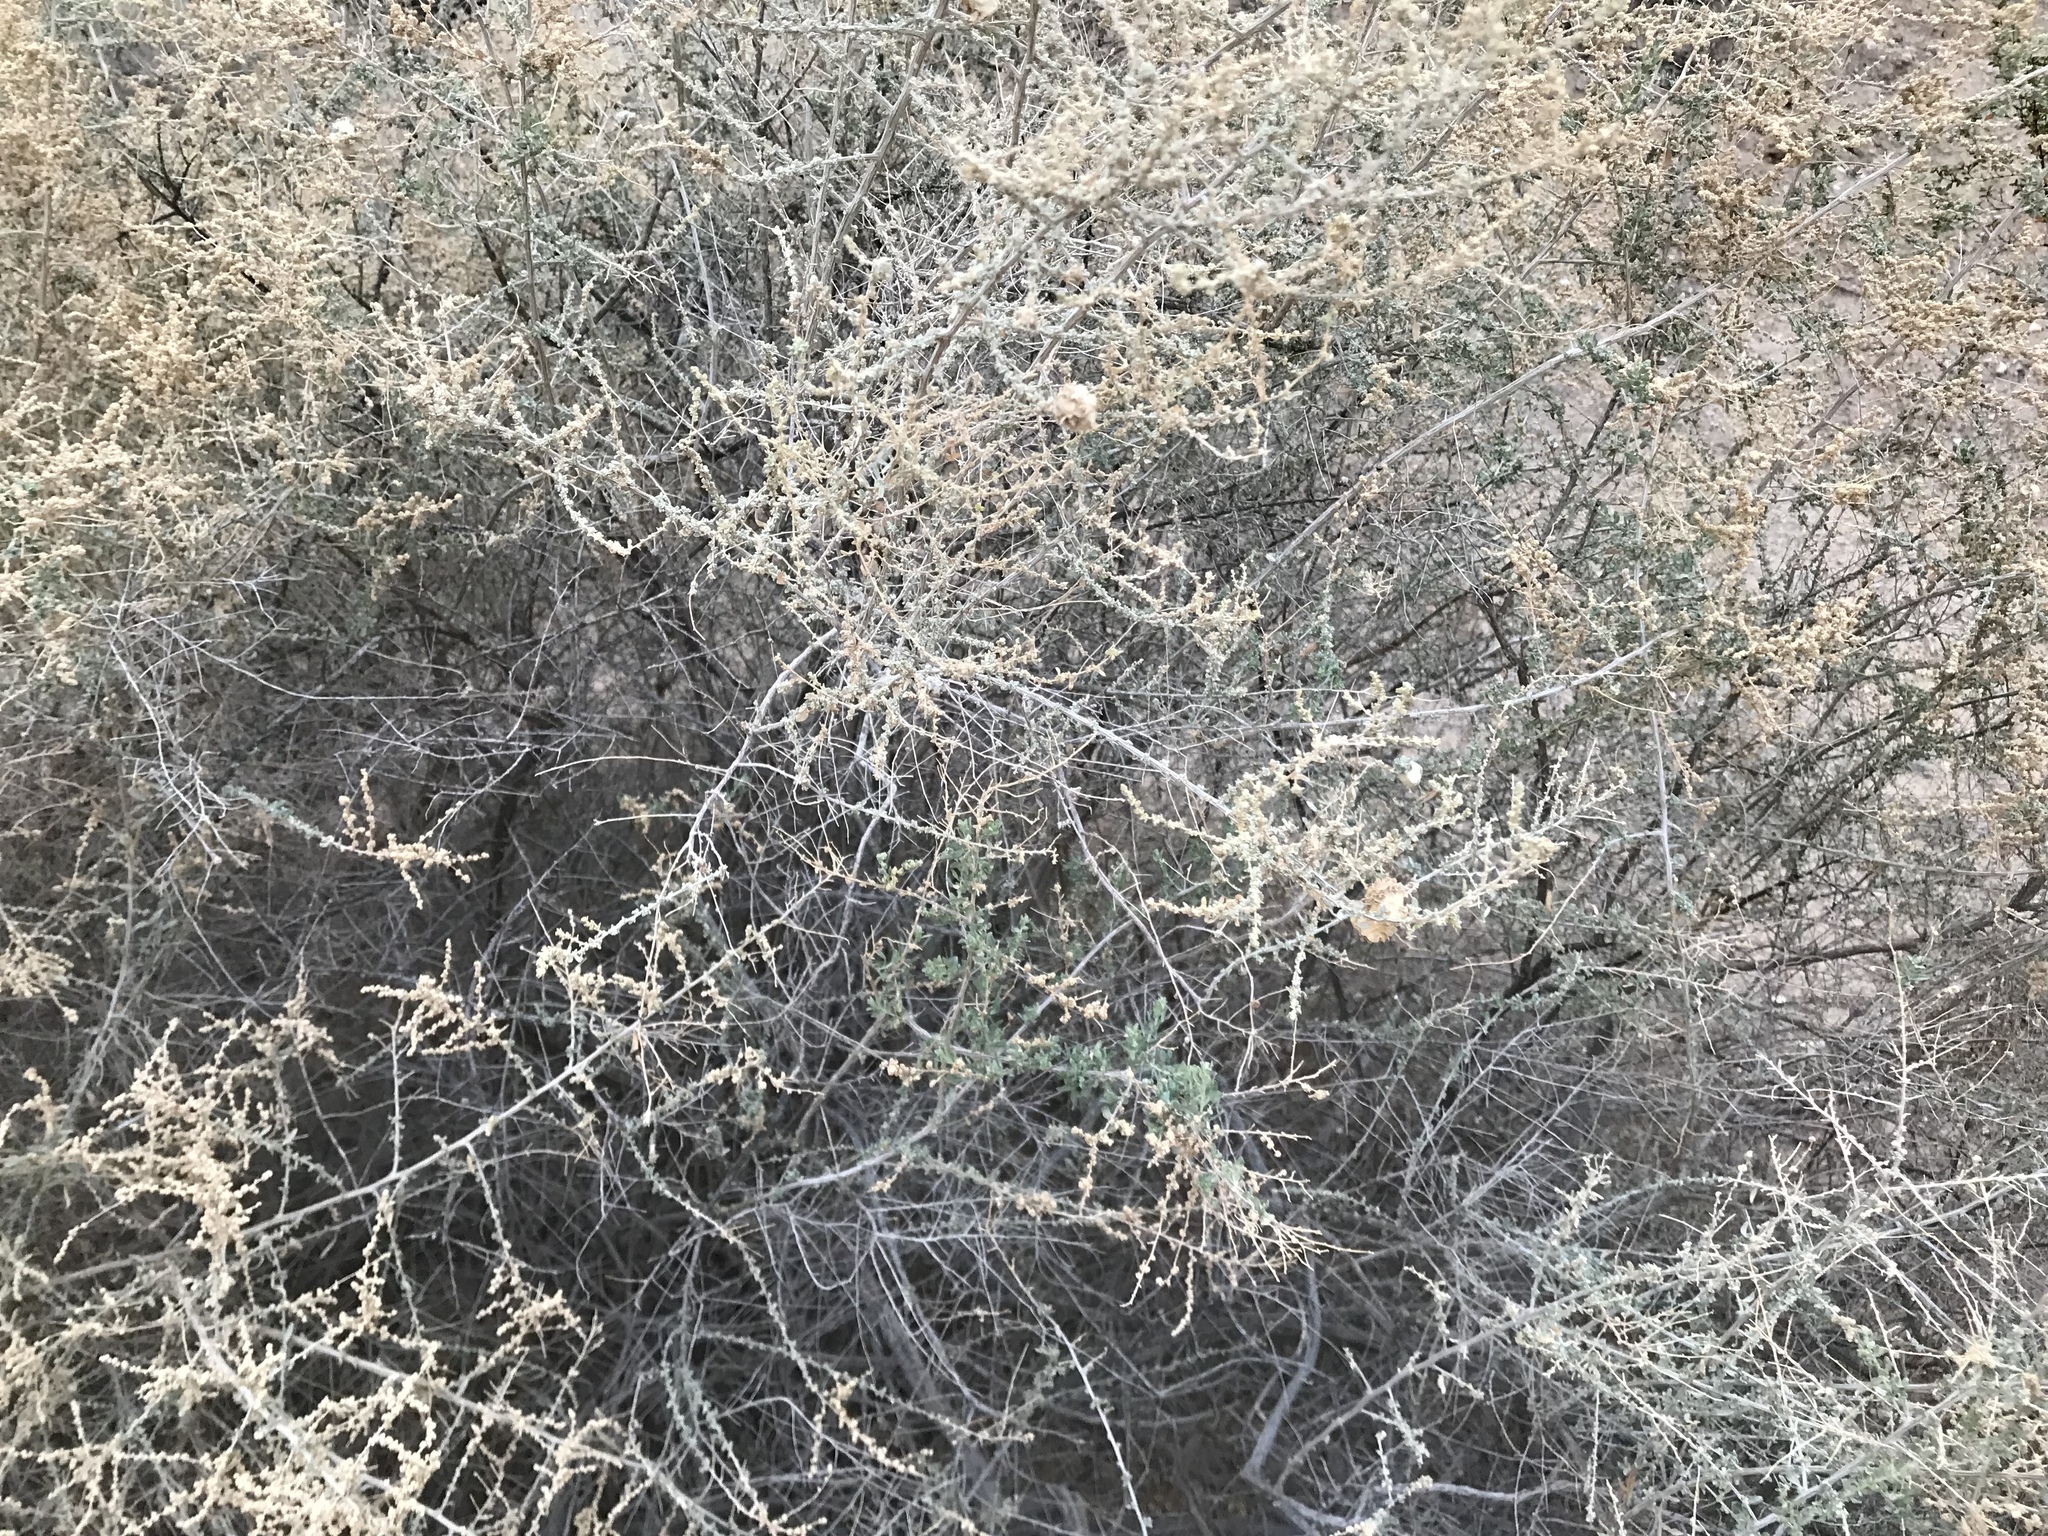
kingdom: Animalia
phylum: Arthropoda
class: Insecta
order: Diptera
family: Cecidomyiidae
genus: Asphondylia
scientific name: Asphondylia floccosa
